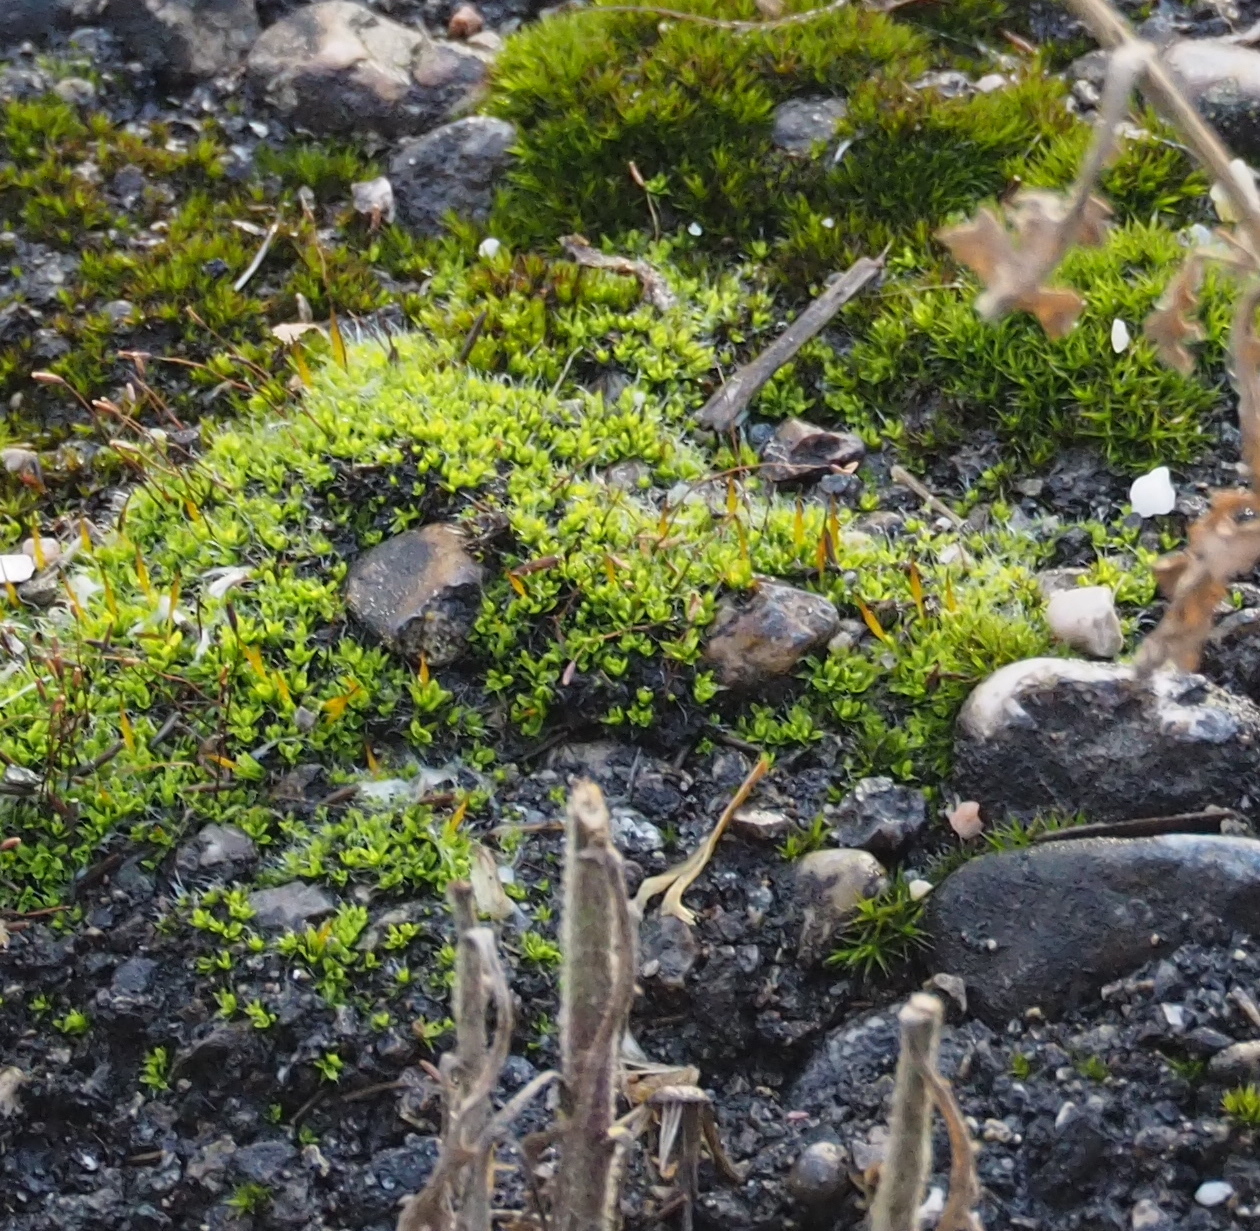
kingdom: Plantae
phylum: Bryophyta
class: Bryopsida
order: Pottiales
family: Pottiaceae
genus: Tortula
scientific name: Tortula muralis
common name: Wall screw-moss
